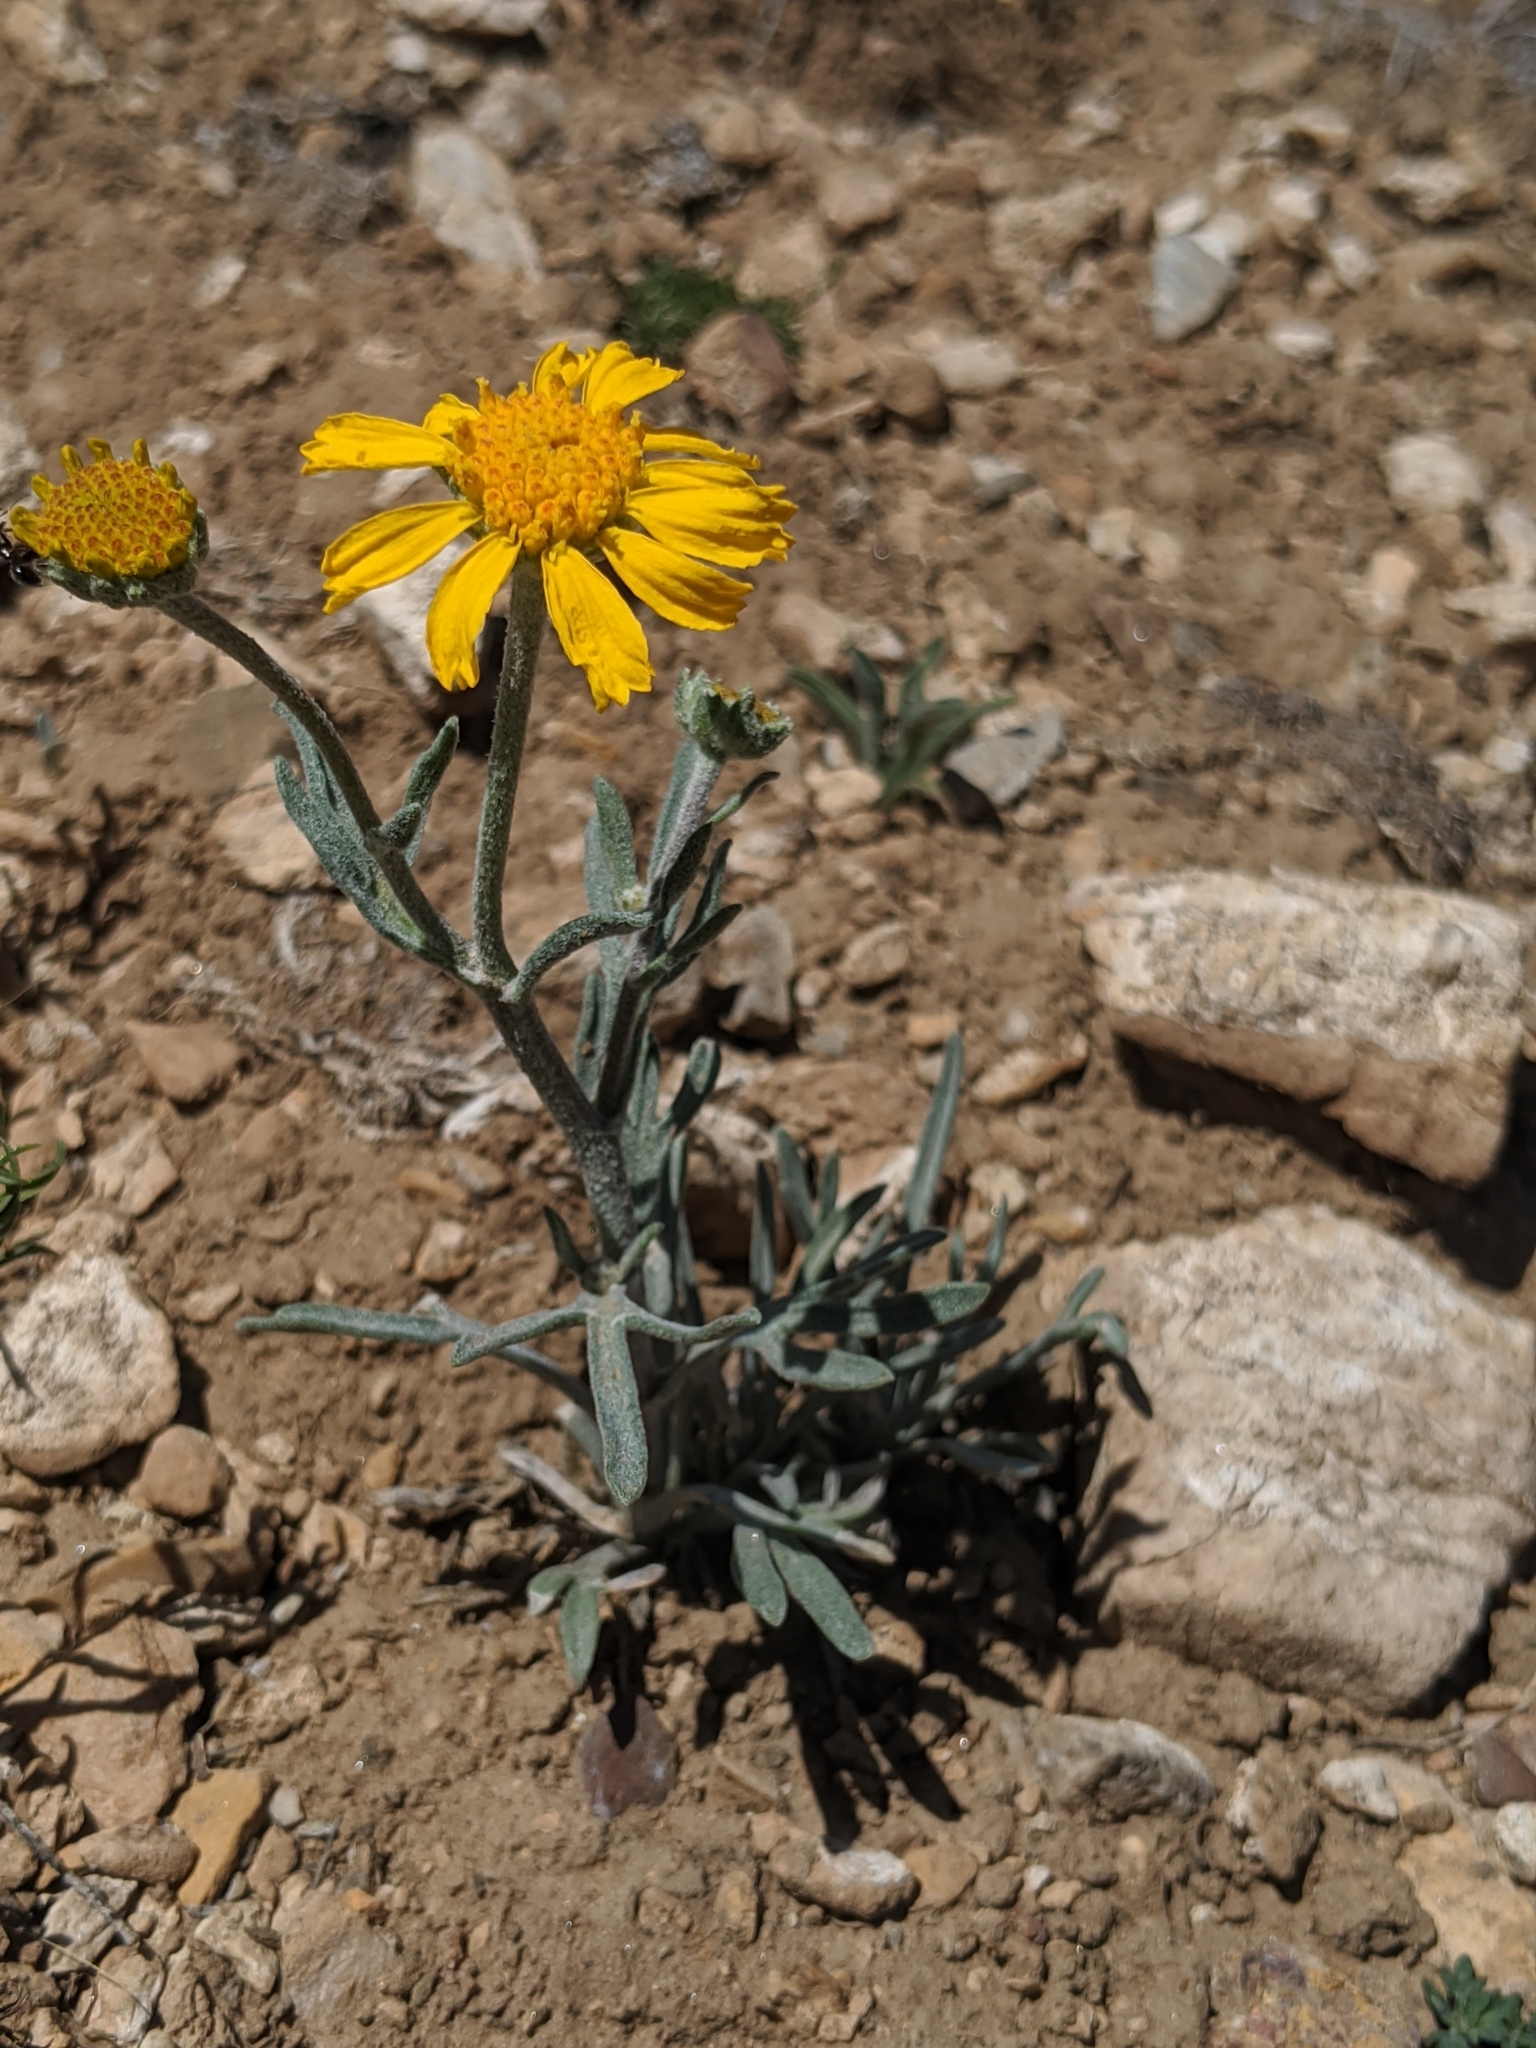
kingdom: Plantae
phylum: Tracheophyta
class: Magnoliopsida
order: Asterales
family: Asteraceae
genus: Hymenoxys
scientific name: Hymenoxys cooperi
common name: Cooper's bitterweed
